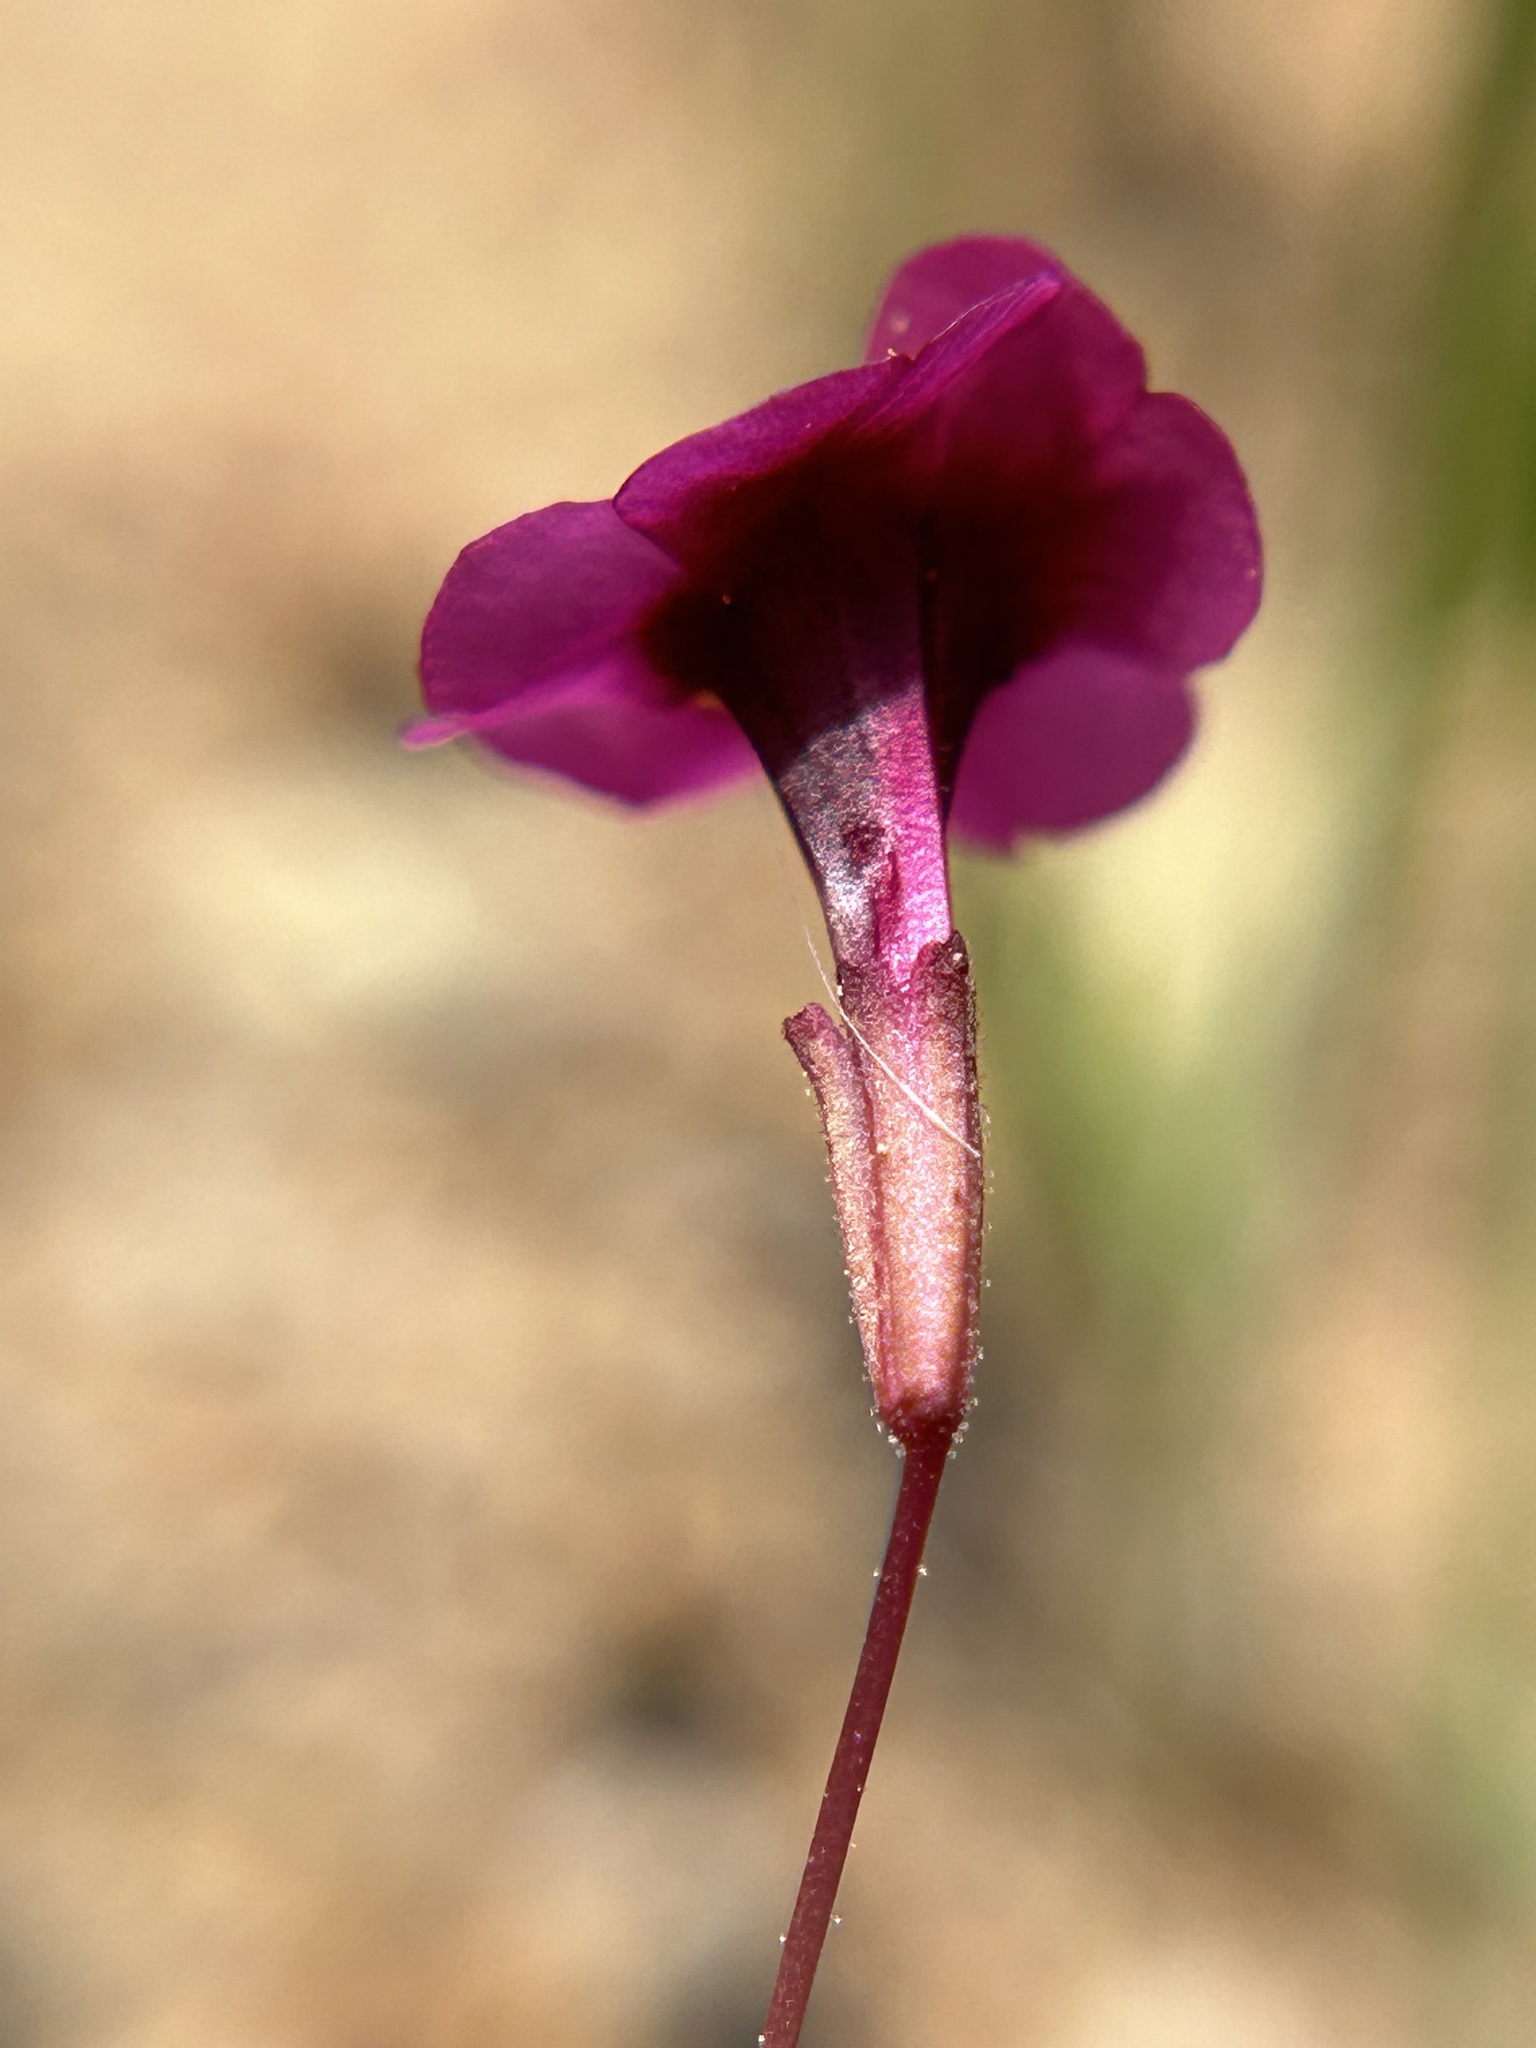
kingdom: Plantae
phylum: Tracheophyta
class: Magnoliopsida
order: Lamiales
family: Phrymaceae
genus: Erythranthe
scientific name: Erythranthe hardhamiae
